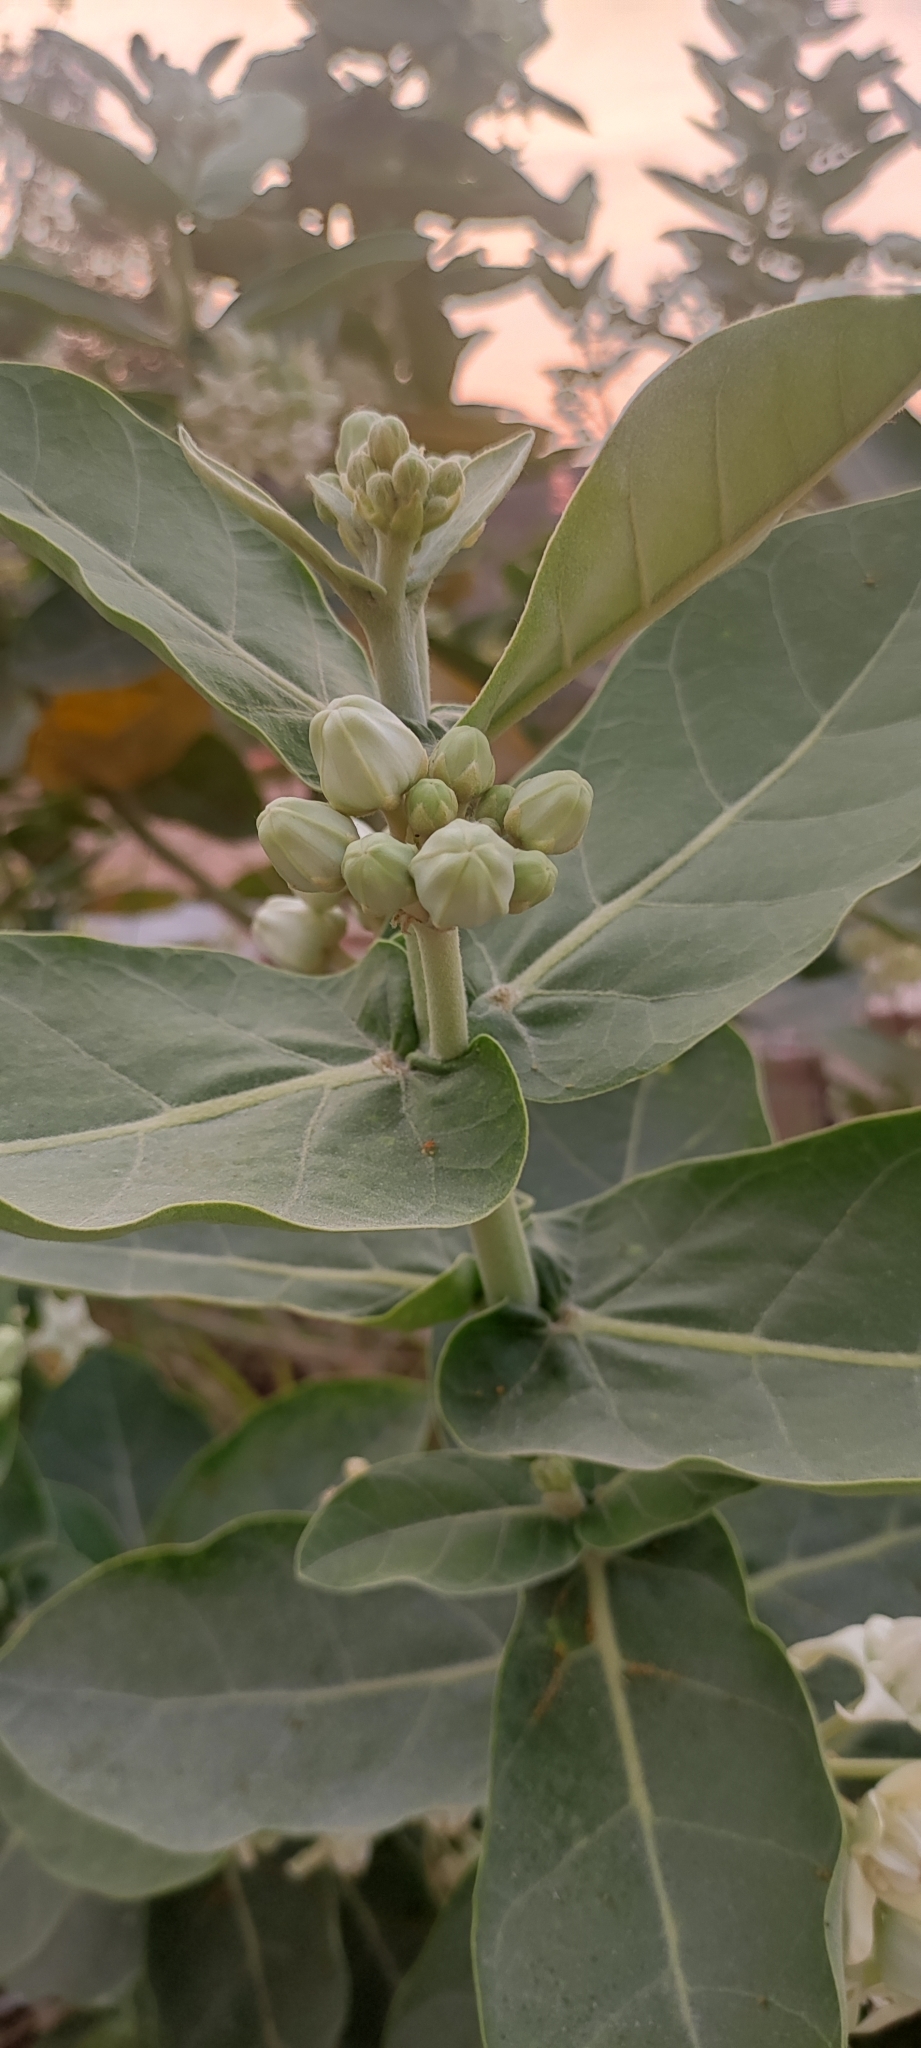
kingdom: Plantae
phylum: Tracheophyta
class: Magnoliopsida
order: Gentianales
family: Apocynaceae
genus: Calotropis
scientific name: Calotropis gigantea
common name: Crown flower
